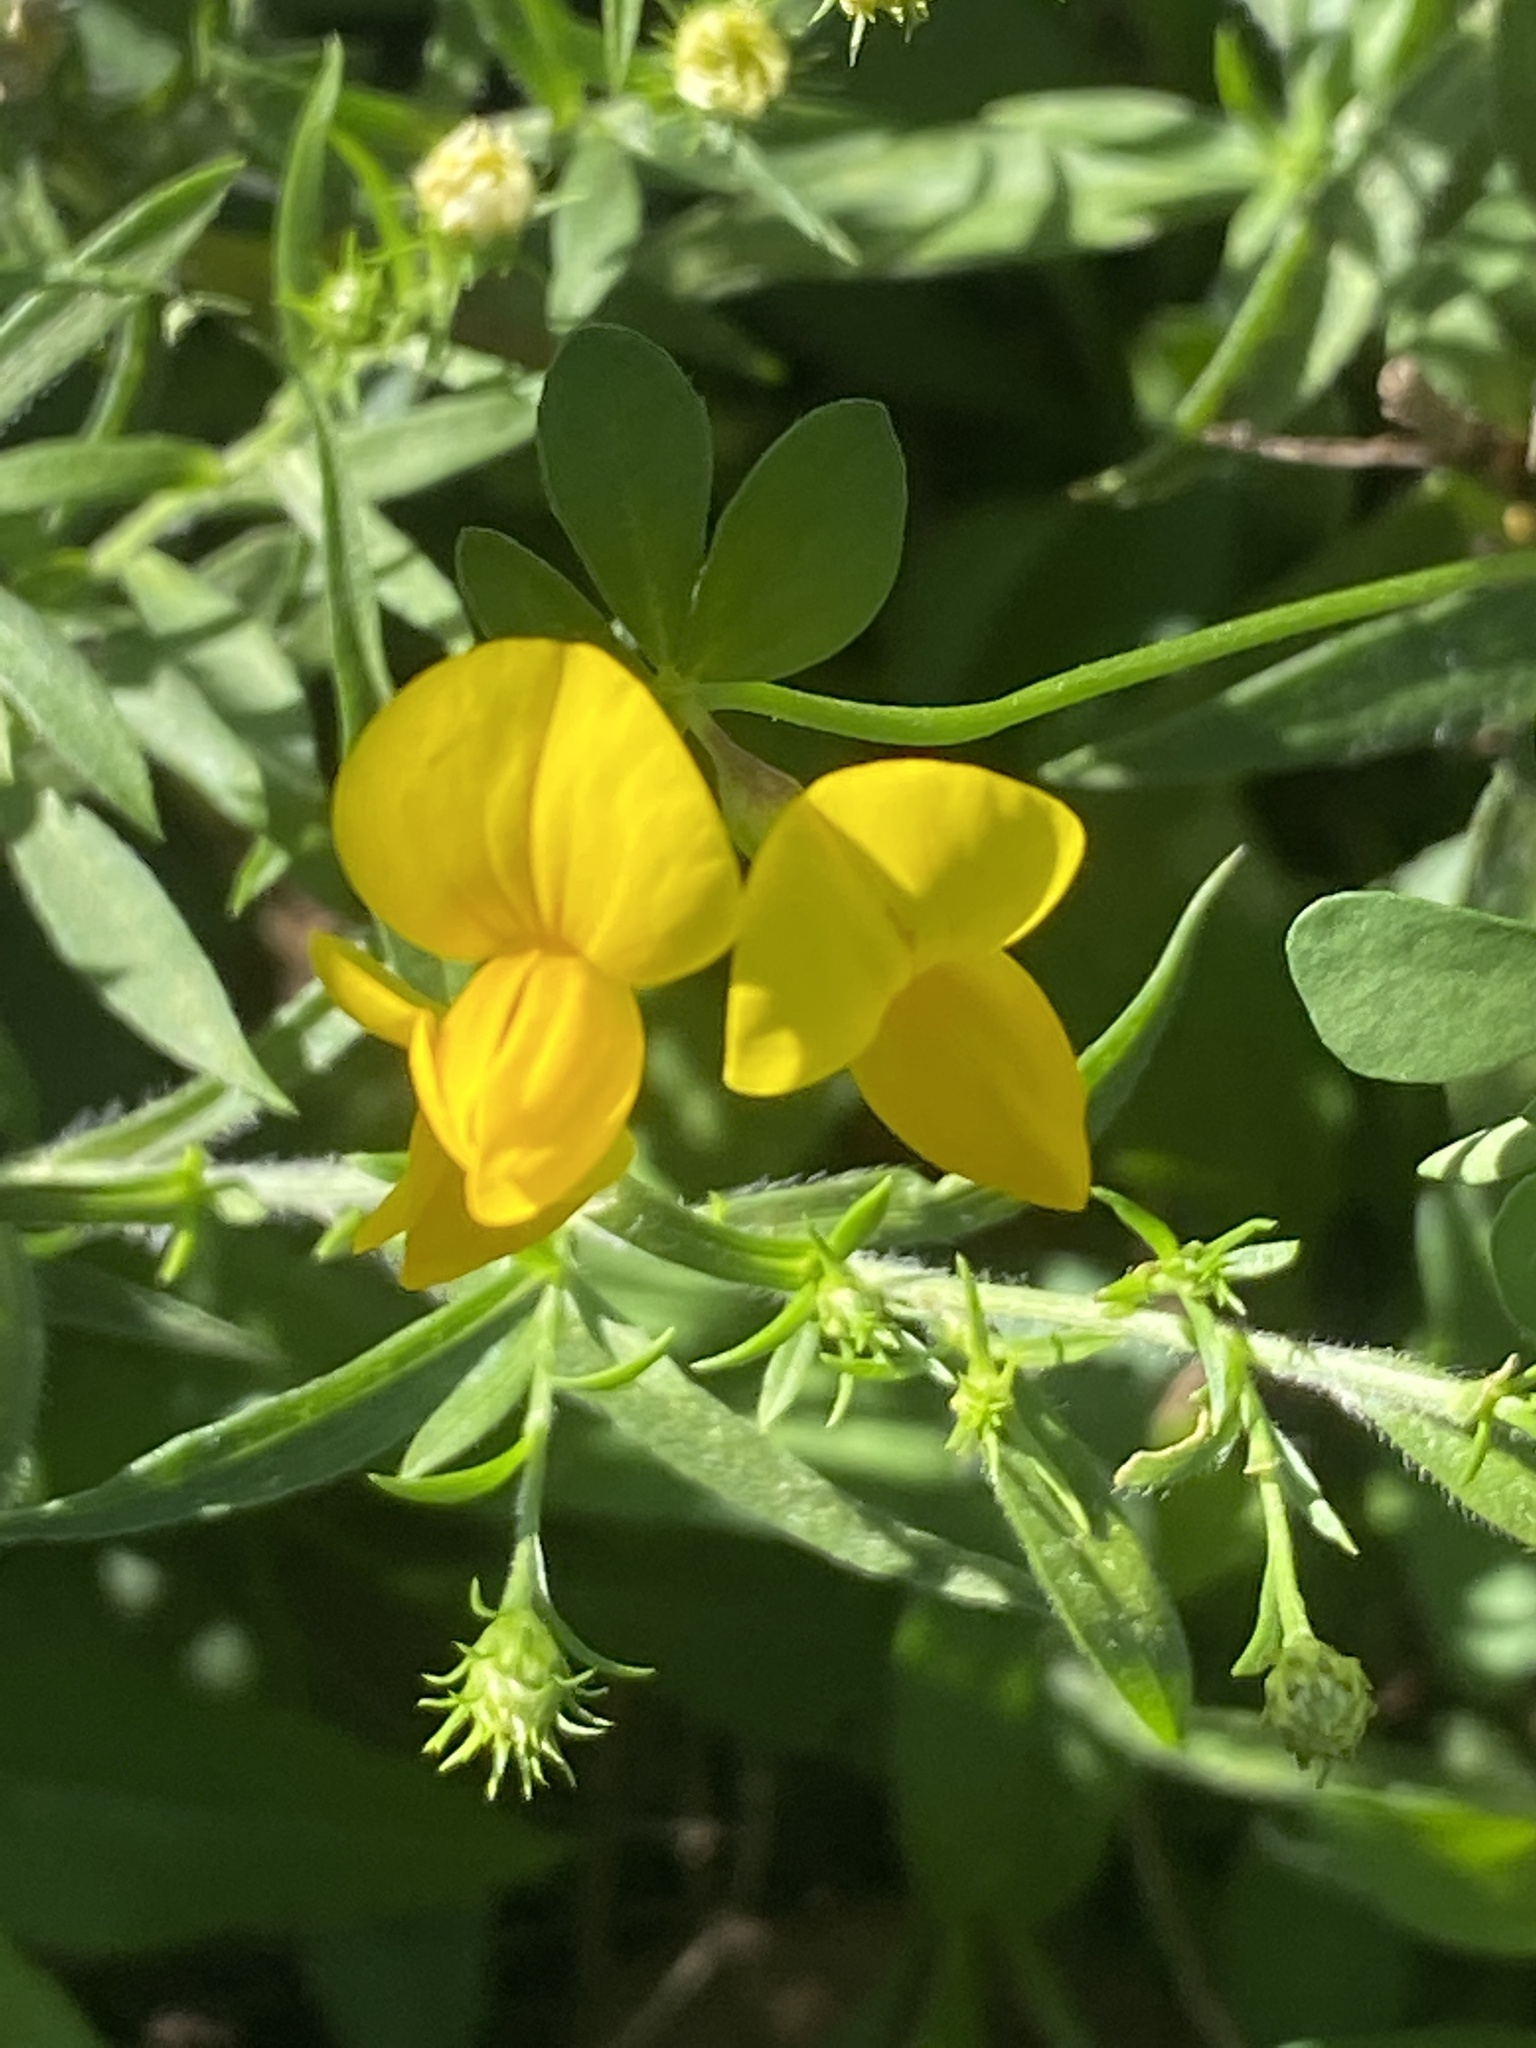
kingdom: Plantae
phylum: Tracheophyta
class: Magnoliopsida
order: Fabales
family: Fabaceae
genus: Lotus
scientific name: Lotus corniculatus
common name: Common bird's-foot-trefoil
